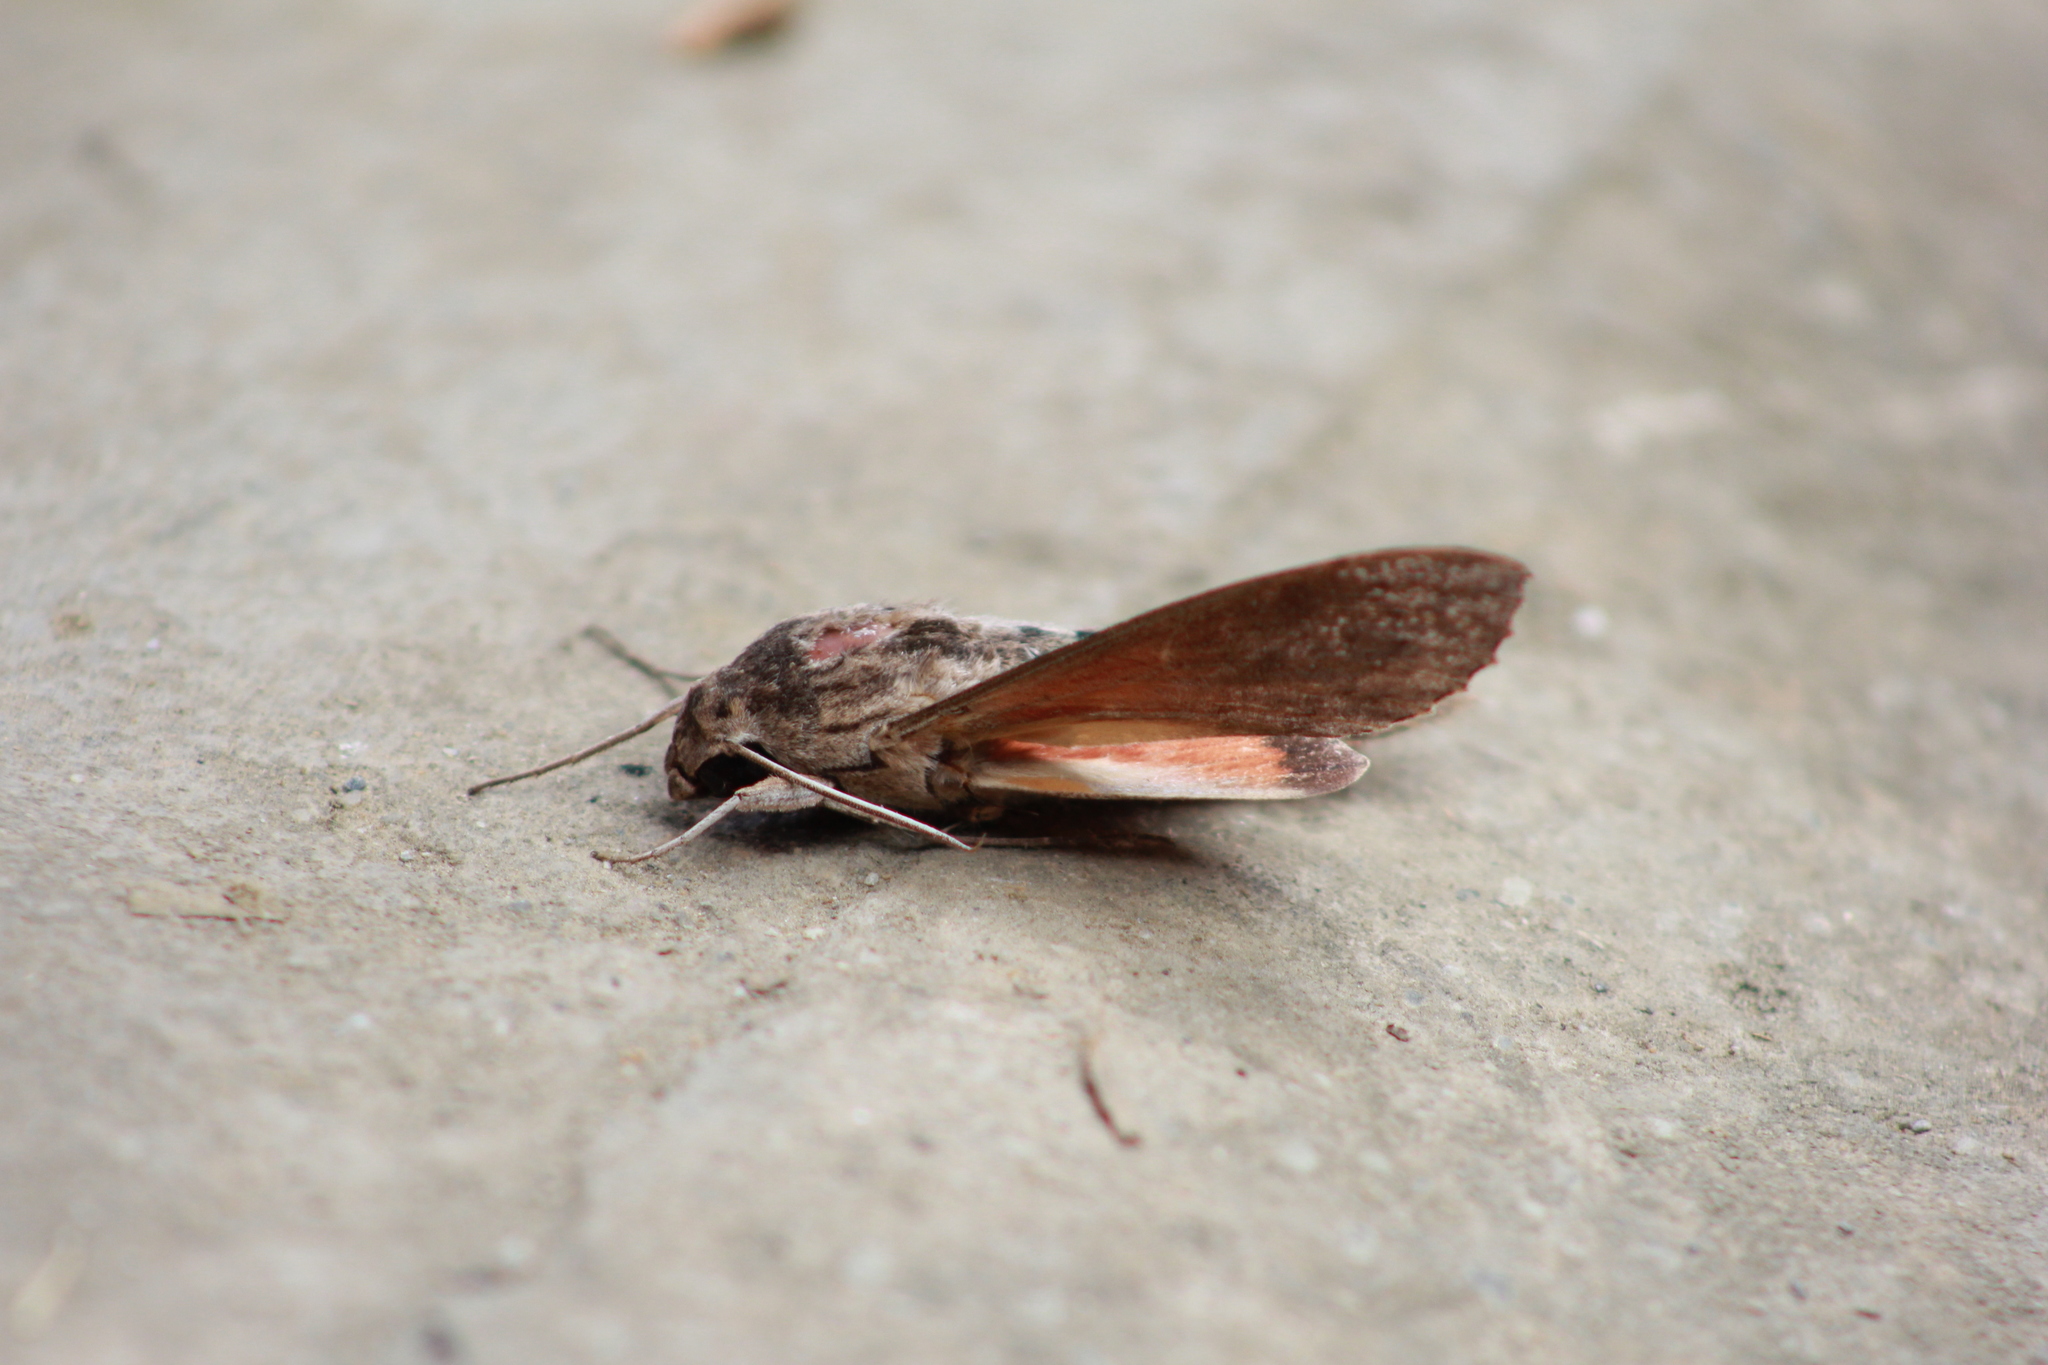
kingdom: Animalia
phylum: Arthropoda
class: Insecta
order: Lepidoptera
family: Sphingidae
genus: Erinnyis
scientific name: Erinnyis ello
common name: Ello sphinx
